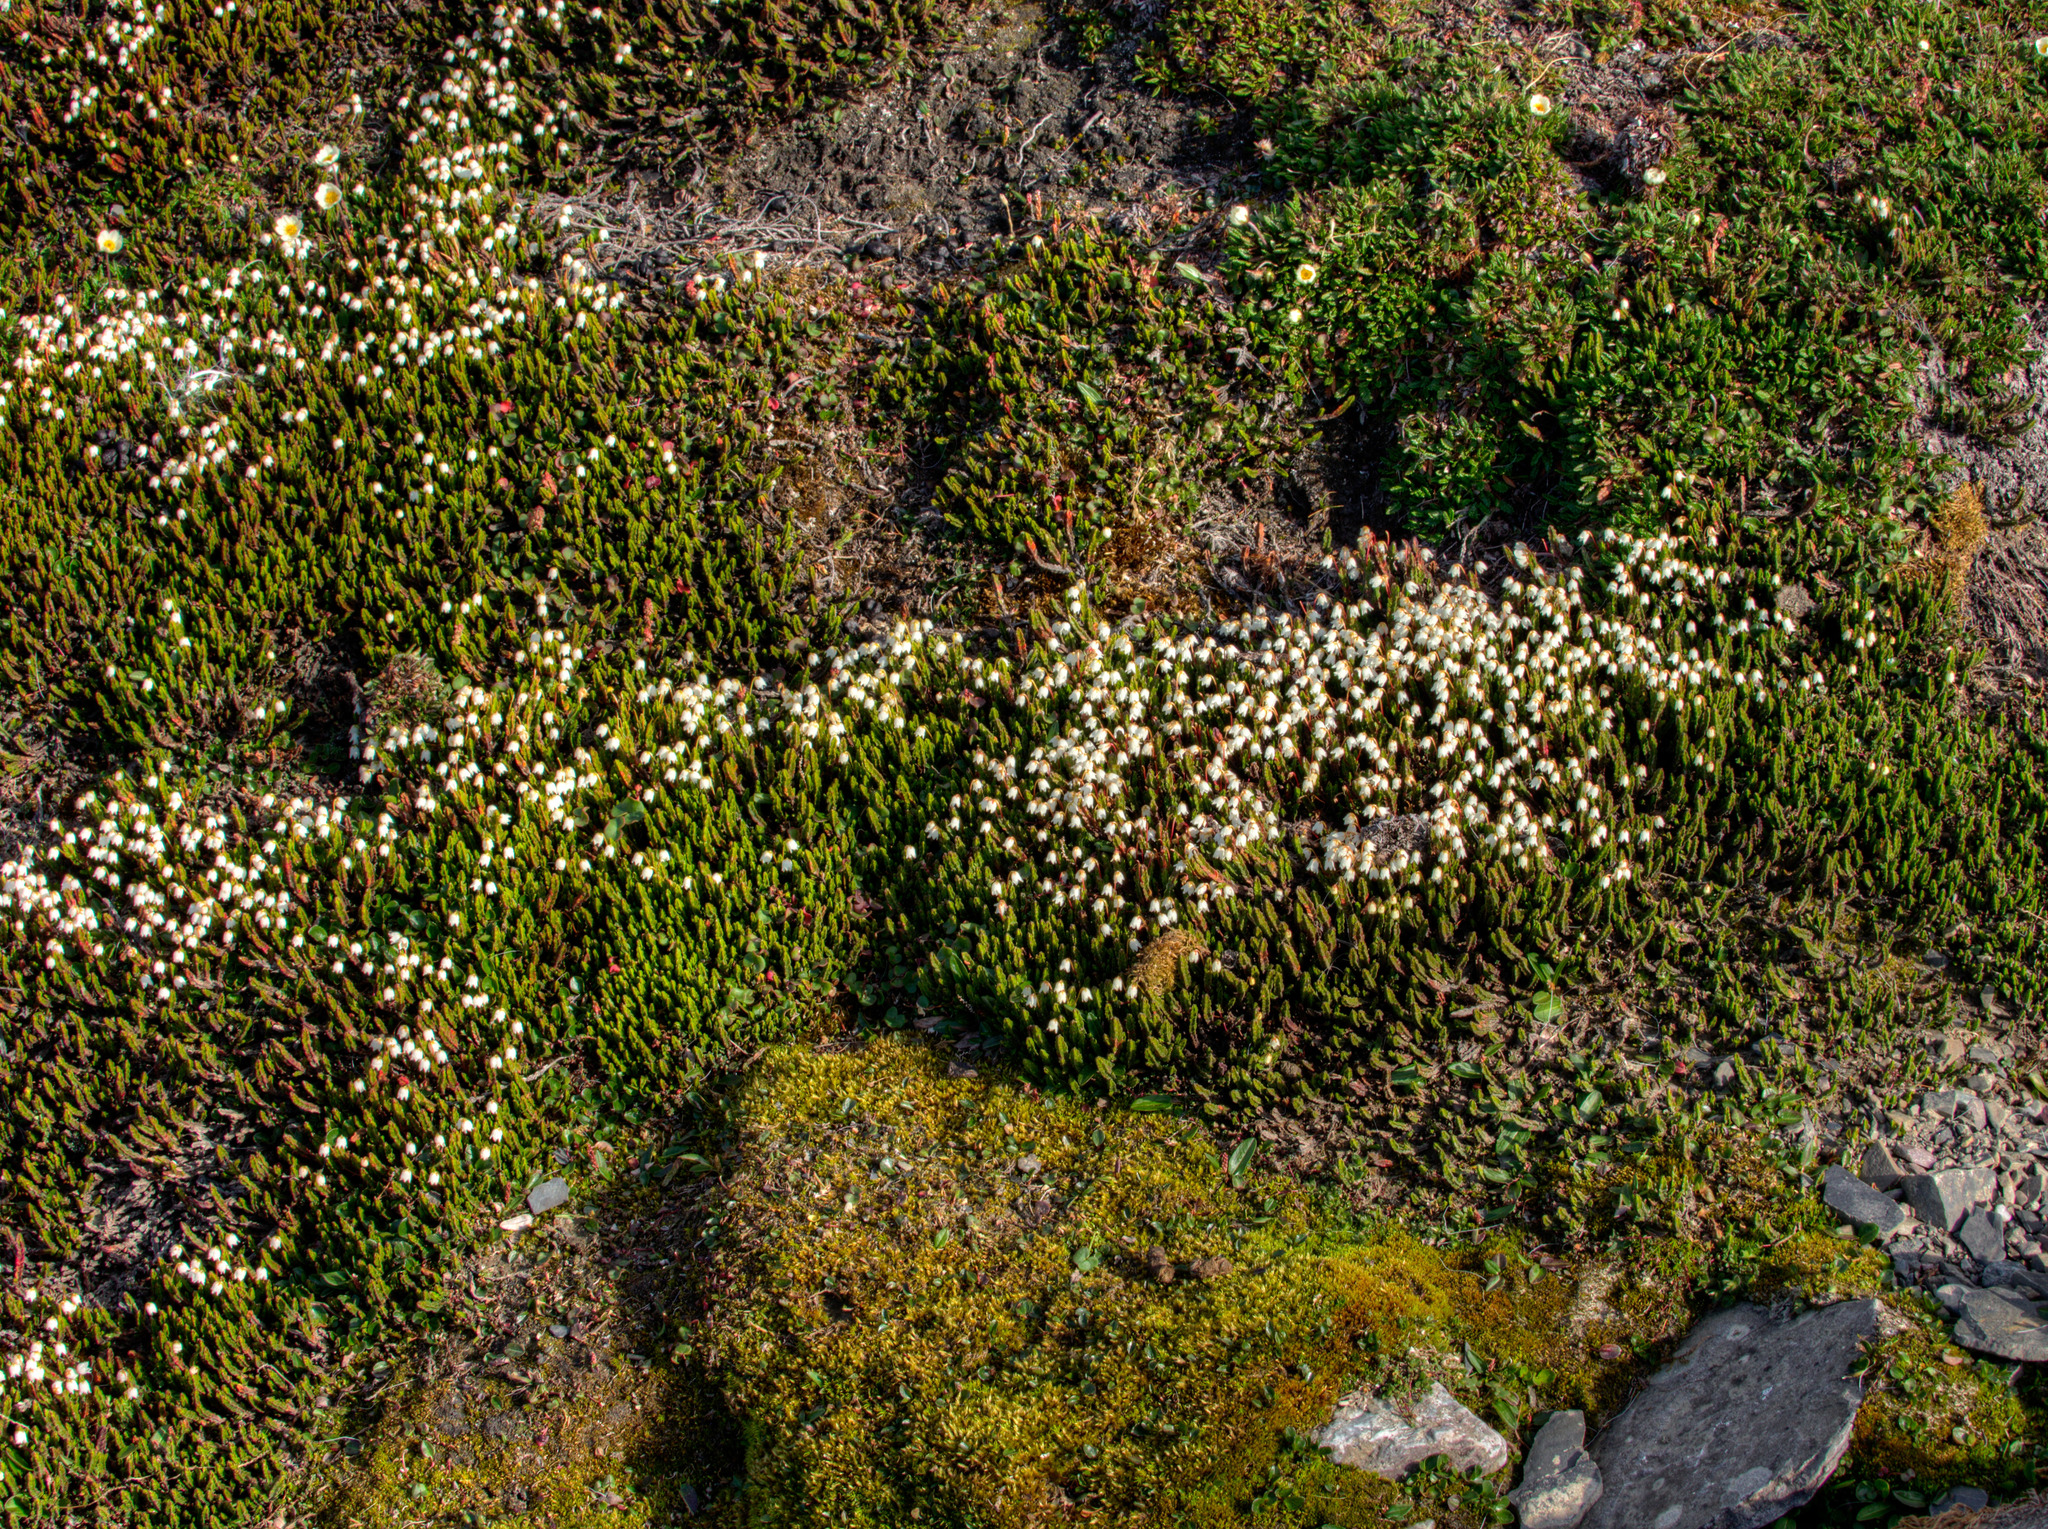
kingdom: Plantae
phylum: Tracheophyta
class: Magnoliopsida
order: Ericales
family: Ericaceae
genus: Cassiope
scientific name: Cassiope tetragona
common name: Arctic bell heather
